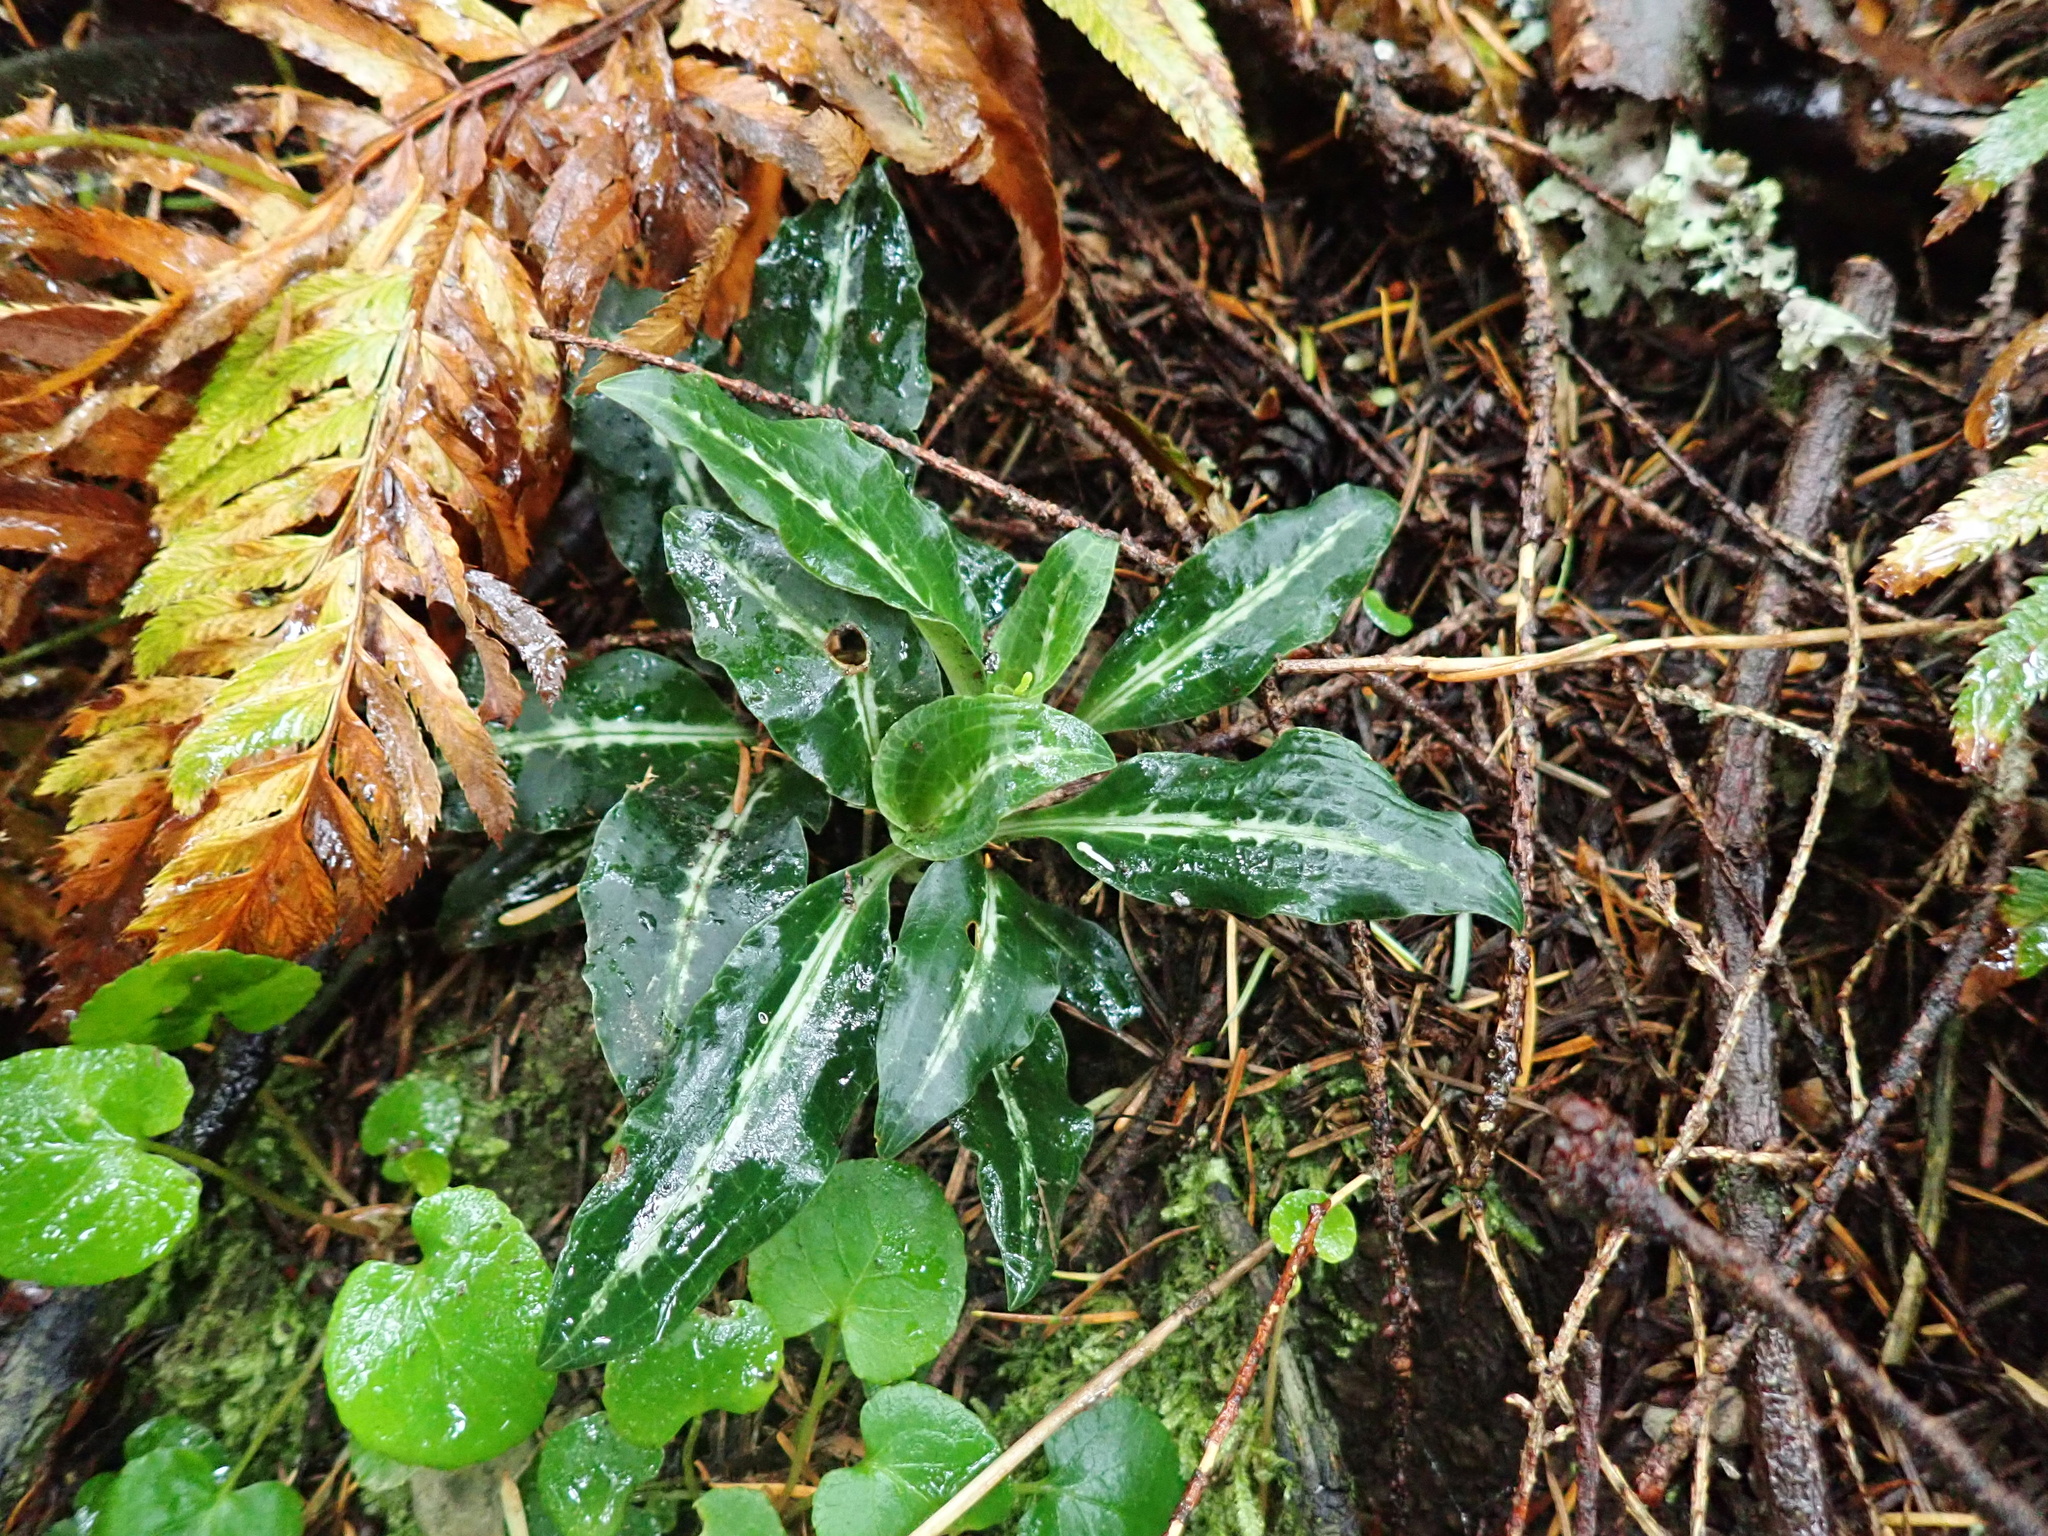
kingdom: Plantae
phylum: Tracheophyta
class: Liliopsida
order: Asparagales
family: Orchidaceae
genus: Goodyera
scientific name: Goodyera oblongifolia
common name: Giant rattlesnake-plantain
